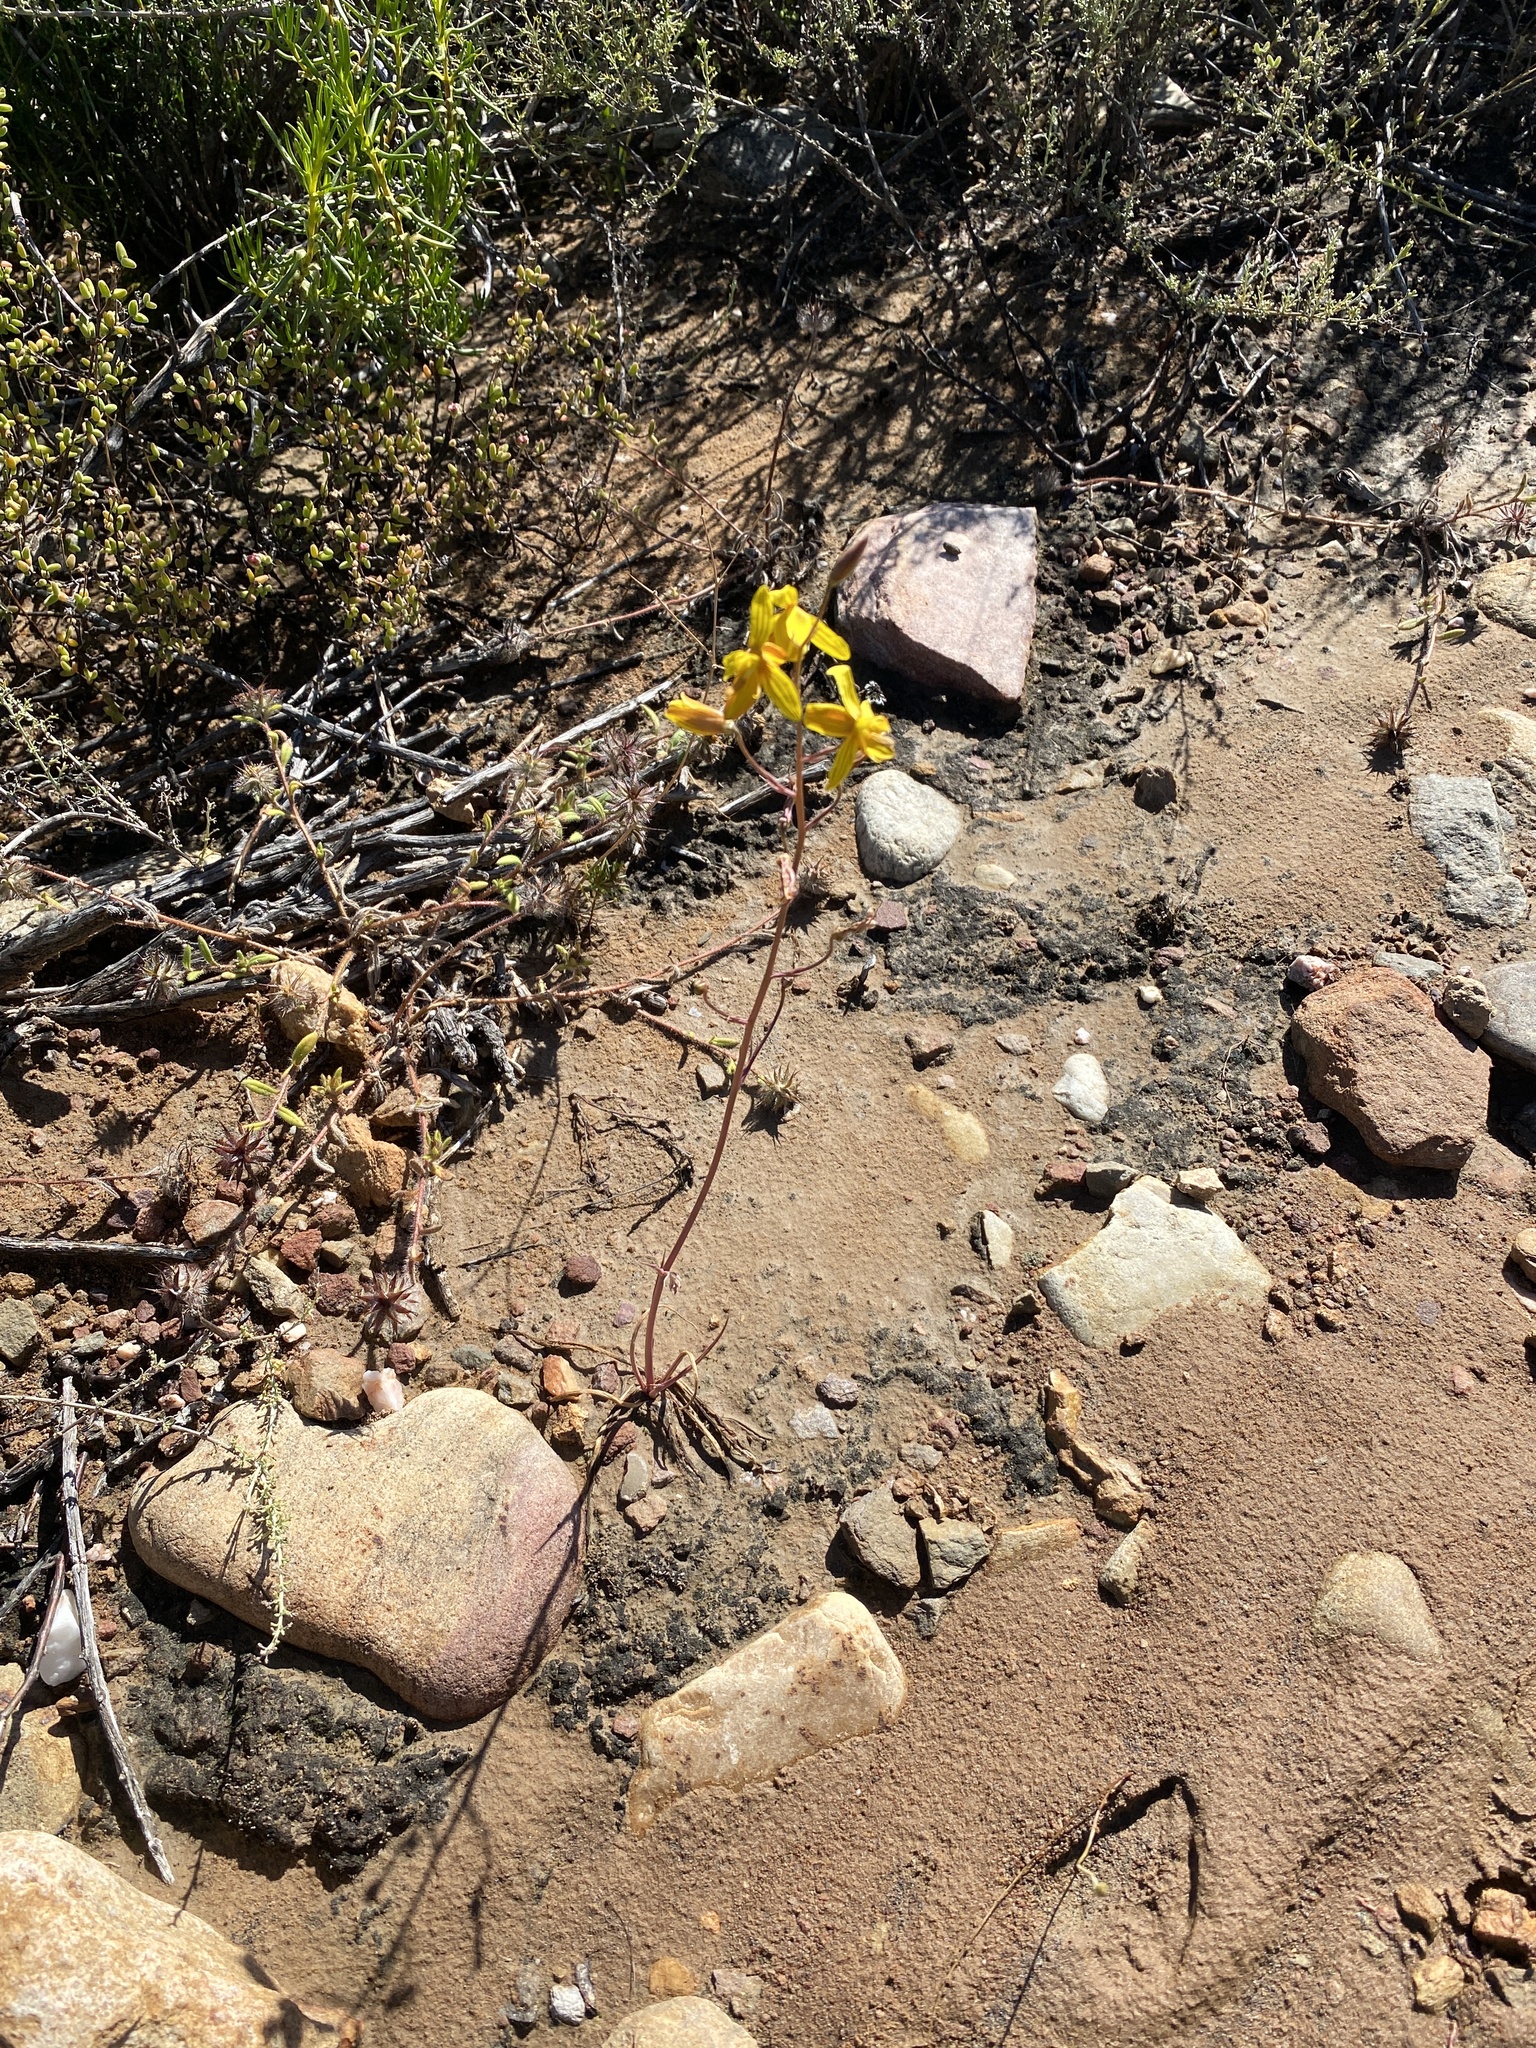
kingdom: Plantae
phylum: Tracheophyta
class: Liliopsida
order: Asparagales
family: Tecophilaeaceae
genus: Cyanella
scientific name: Cyanella lutea
